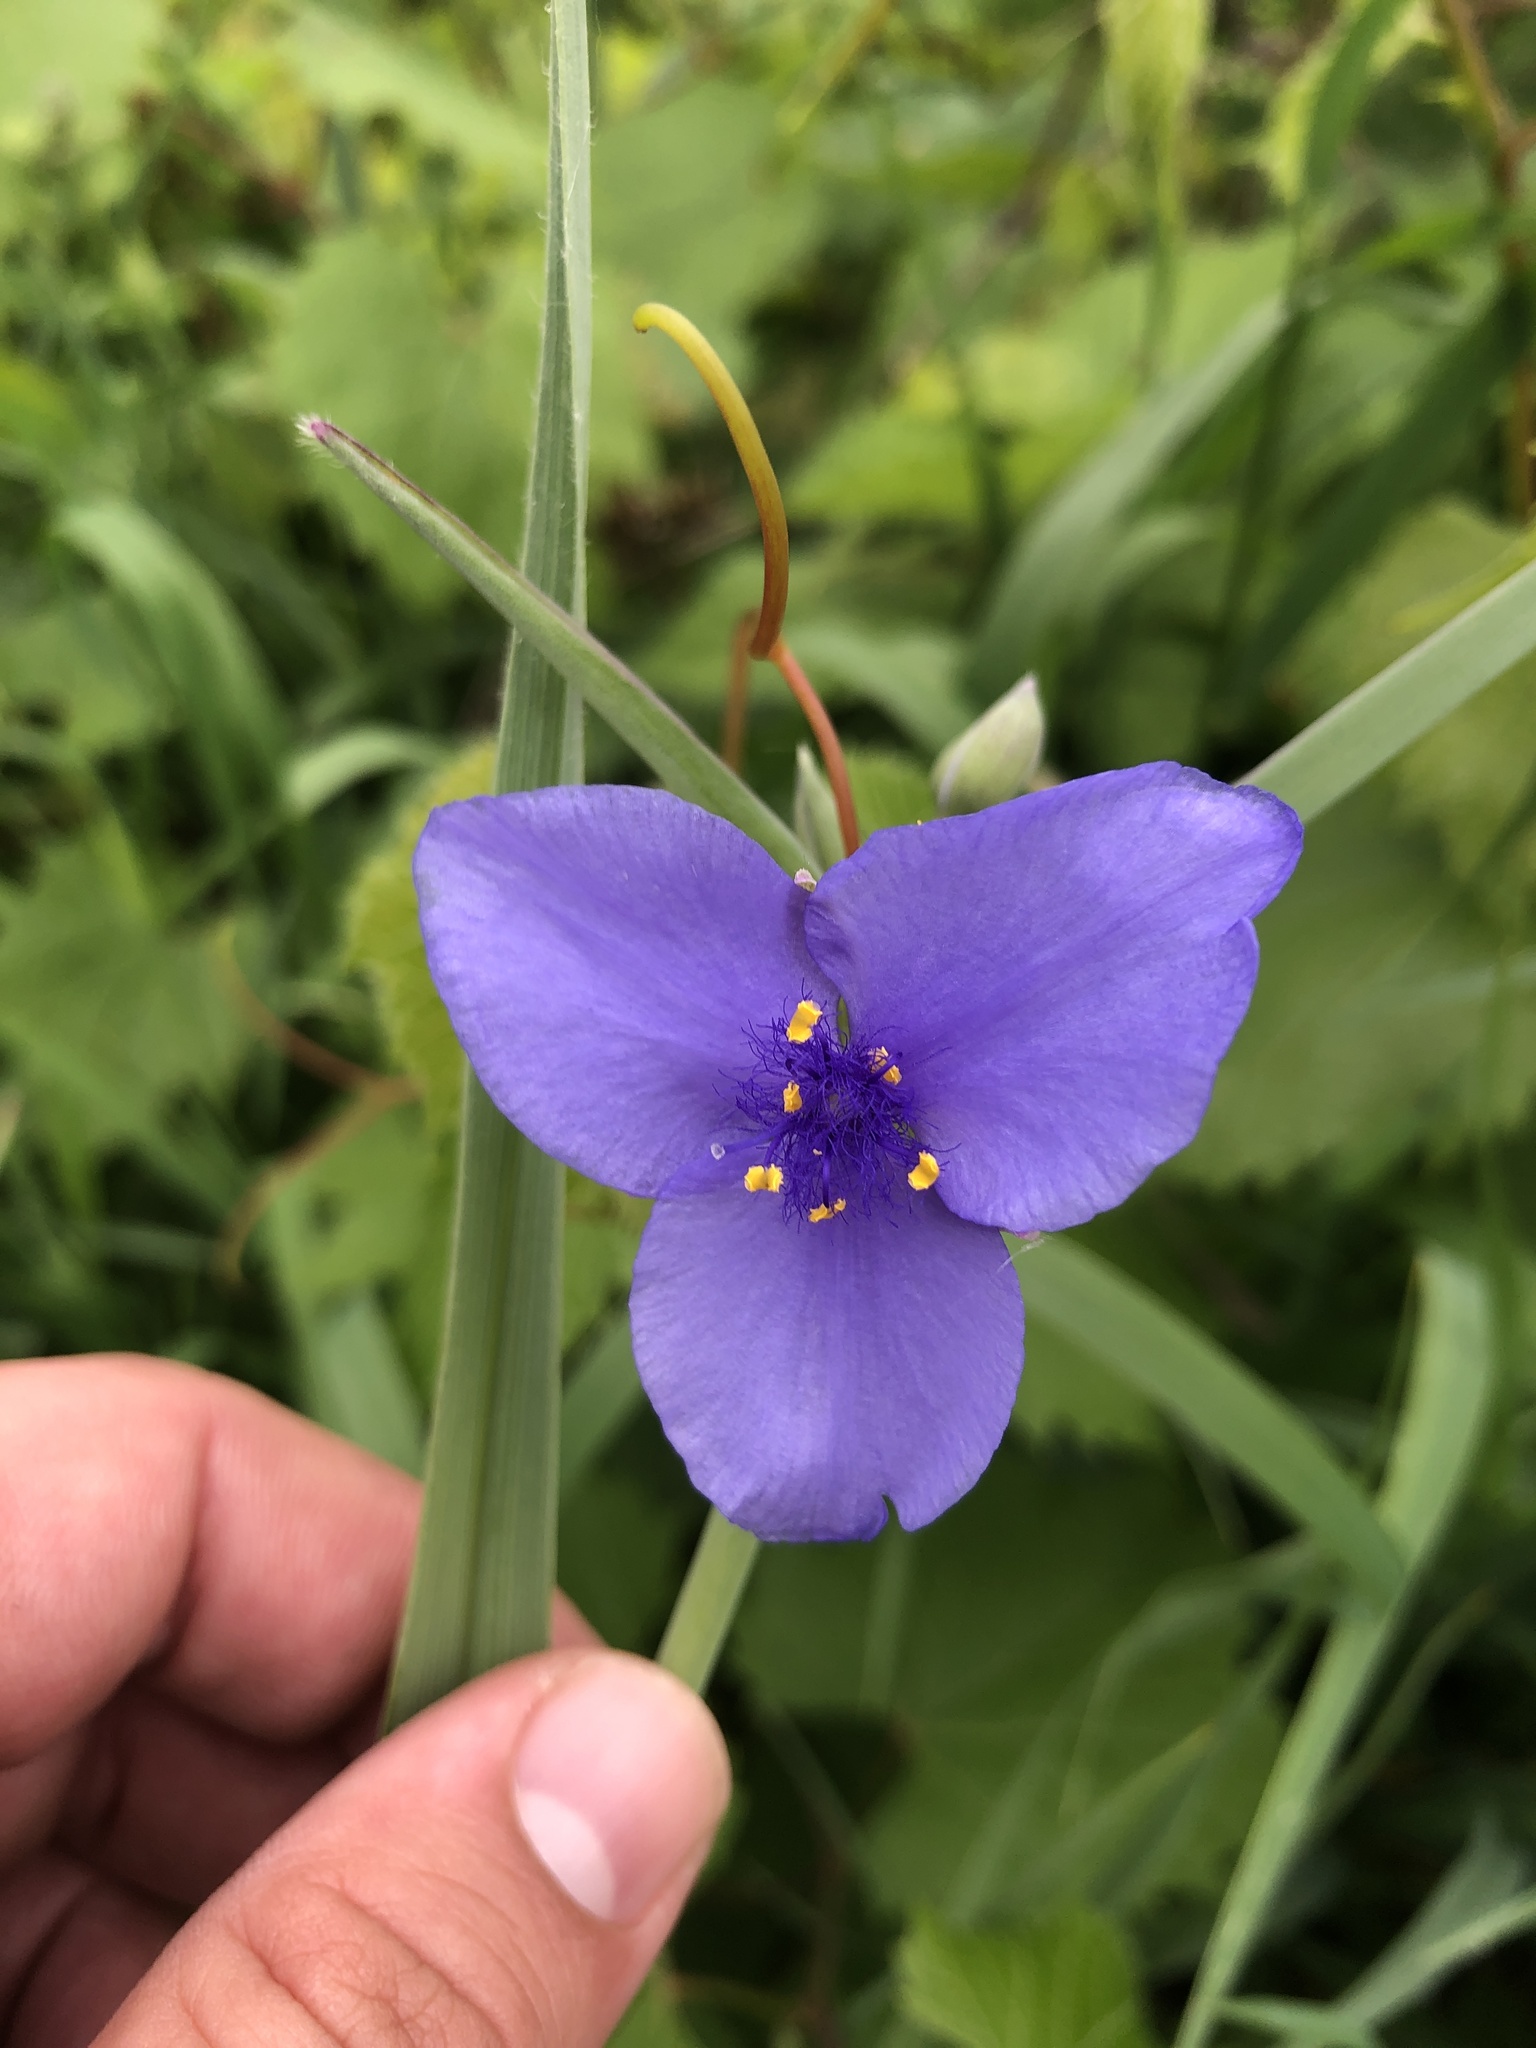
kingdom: Plantae
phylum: Tracheophyta
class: Liliopsida
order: Commelinales
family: Commelinaceae
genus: Tradescantia
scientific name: Tradescantia ohiensis
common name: Ohio spiderwort
